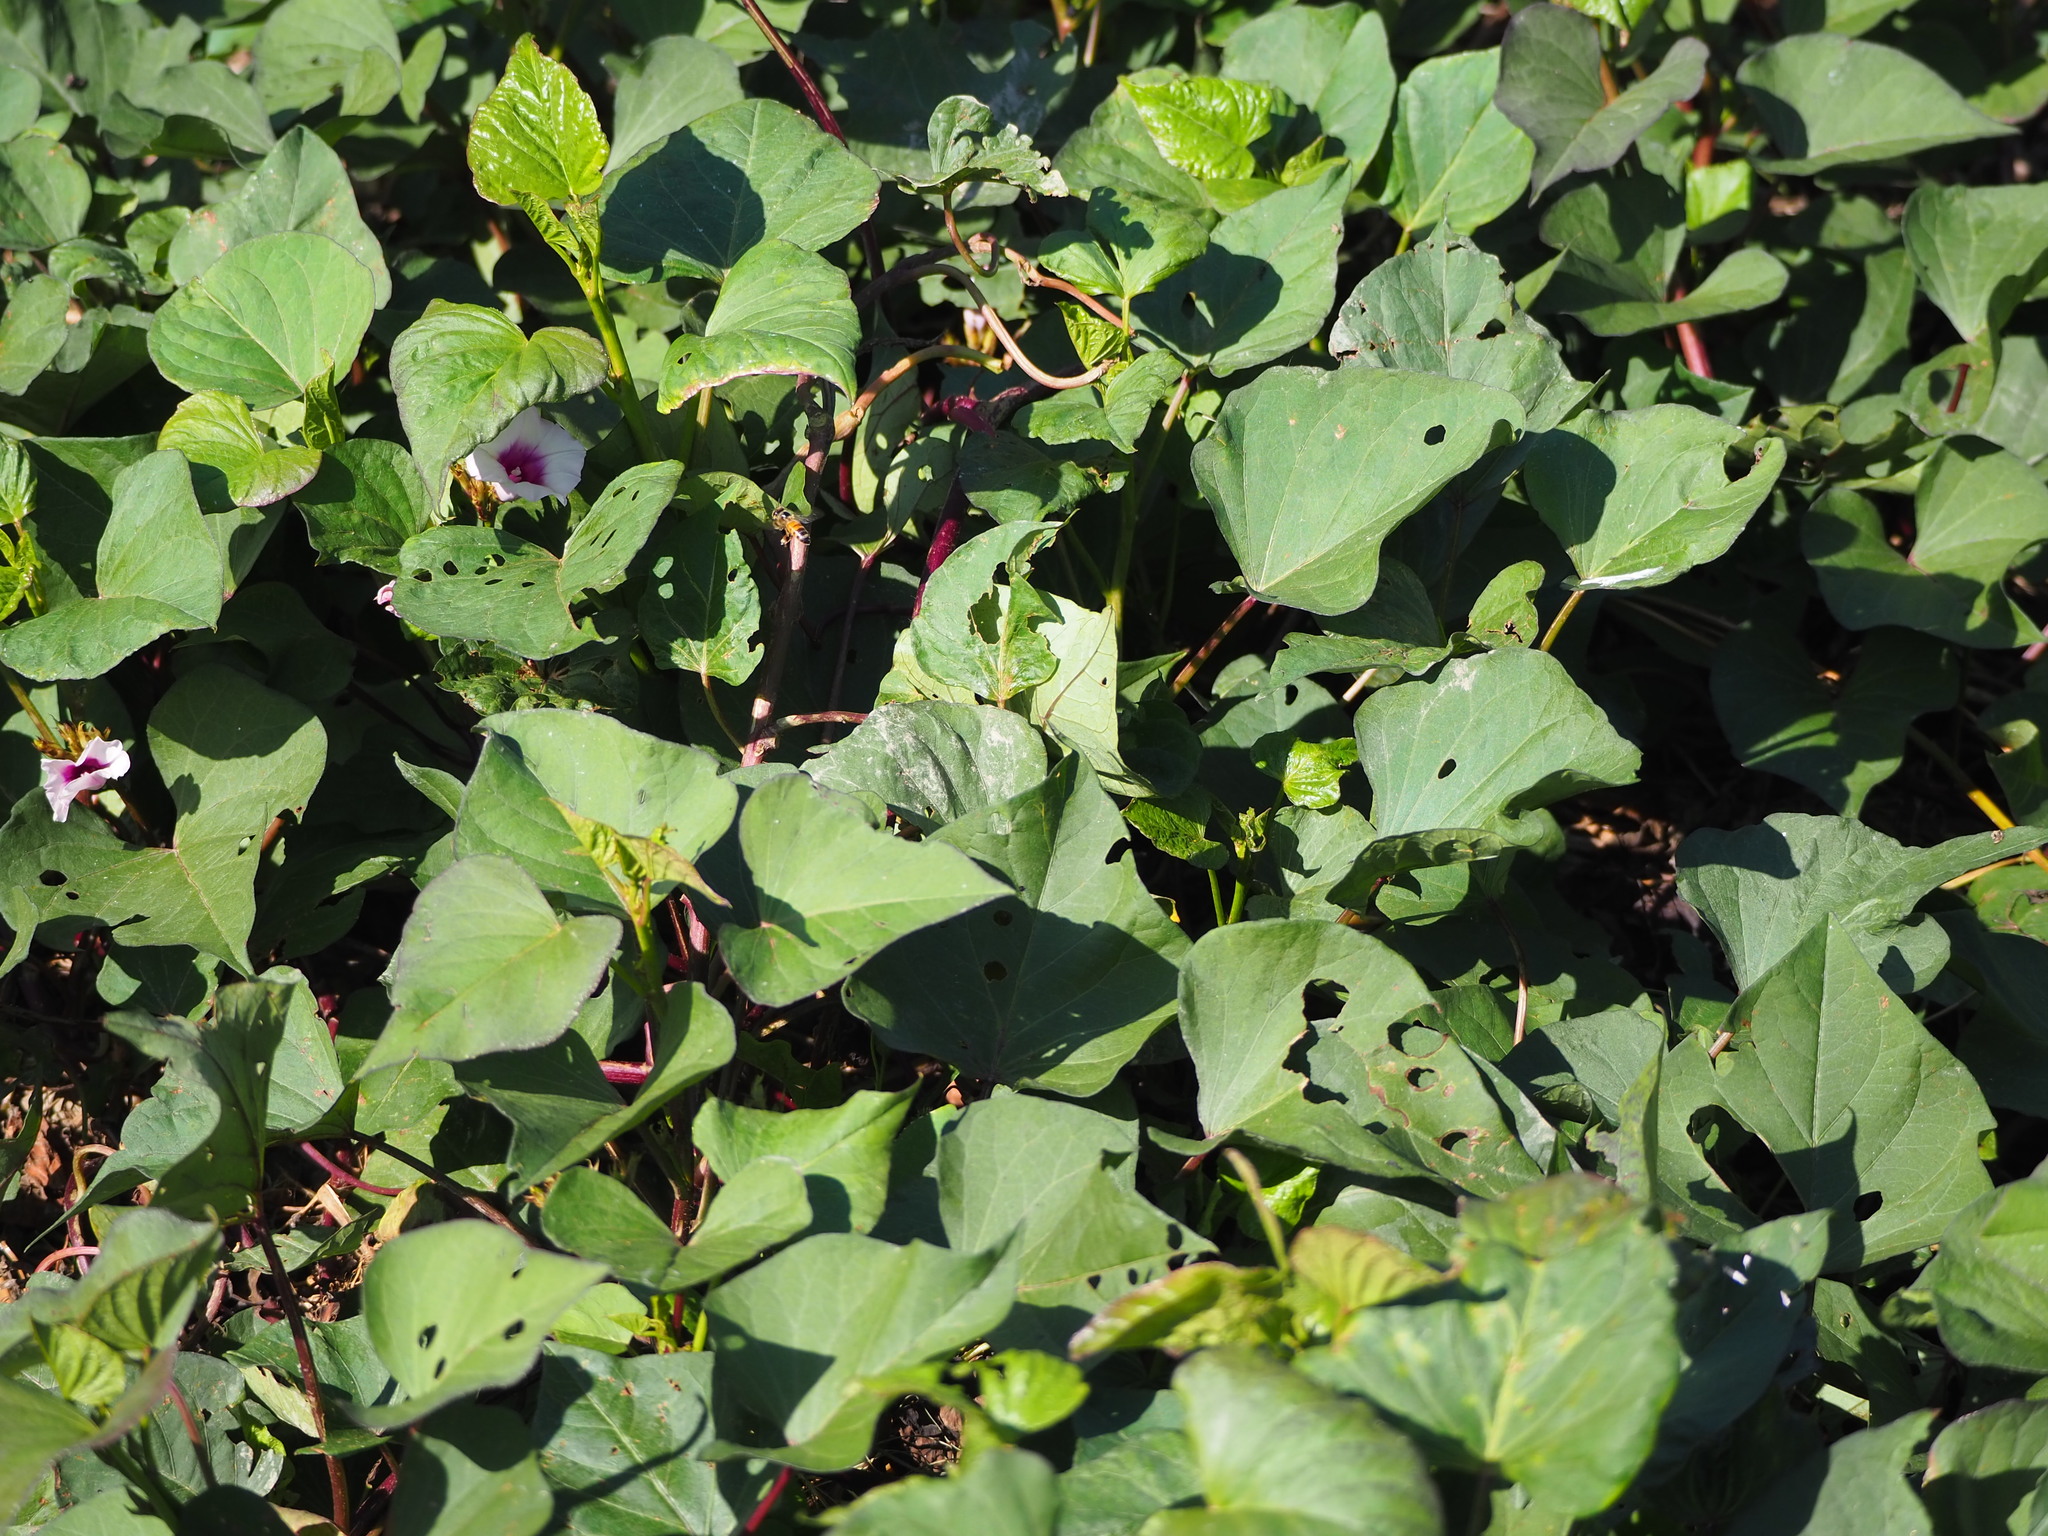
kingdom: Plantae
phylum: Tracheophyta
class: Magnoliopsida
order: Solanales
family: Convolvulaceae
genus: Ipomoea
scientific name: Ipomoea batatas
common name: Sweet-potato
